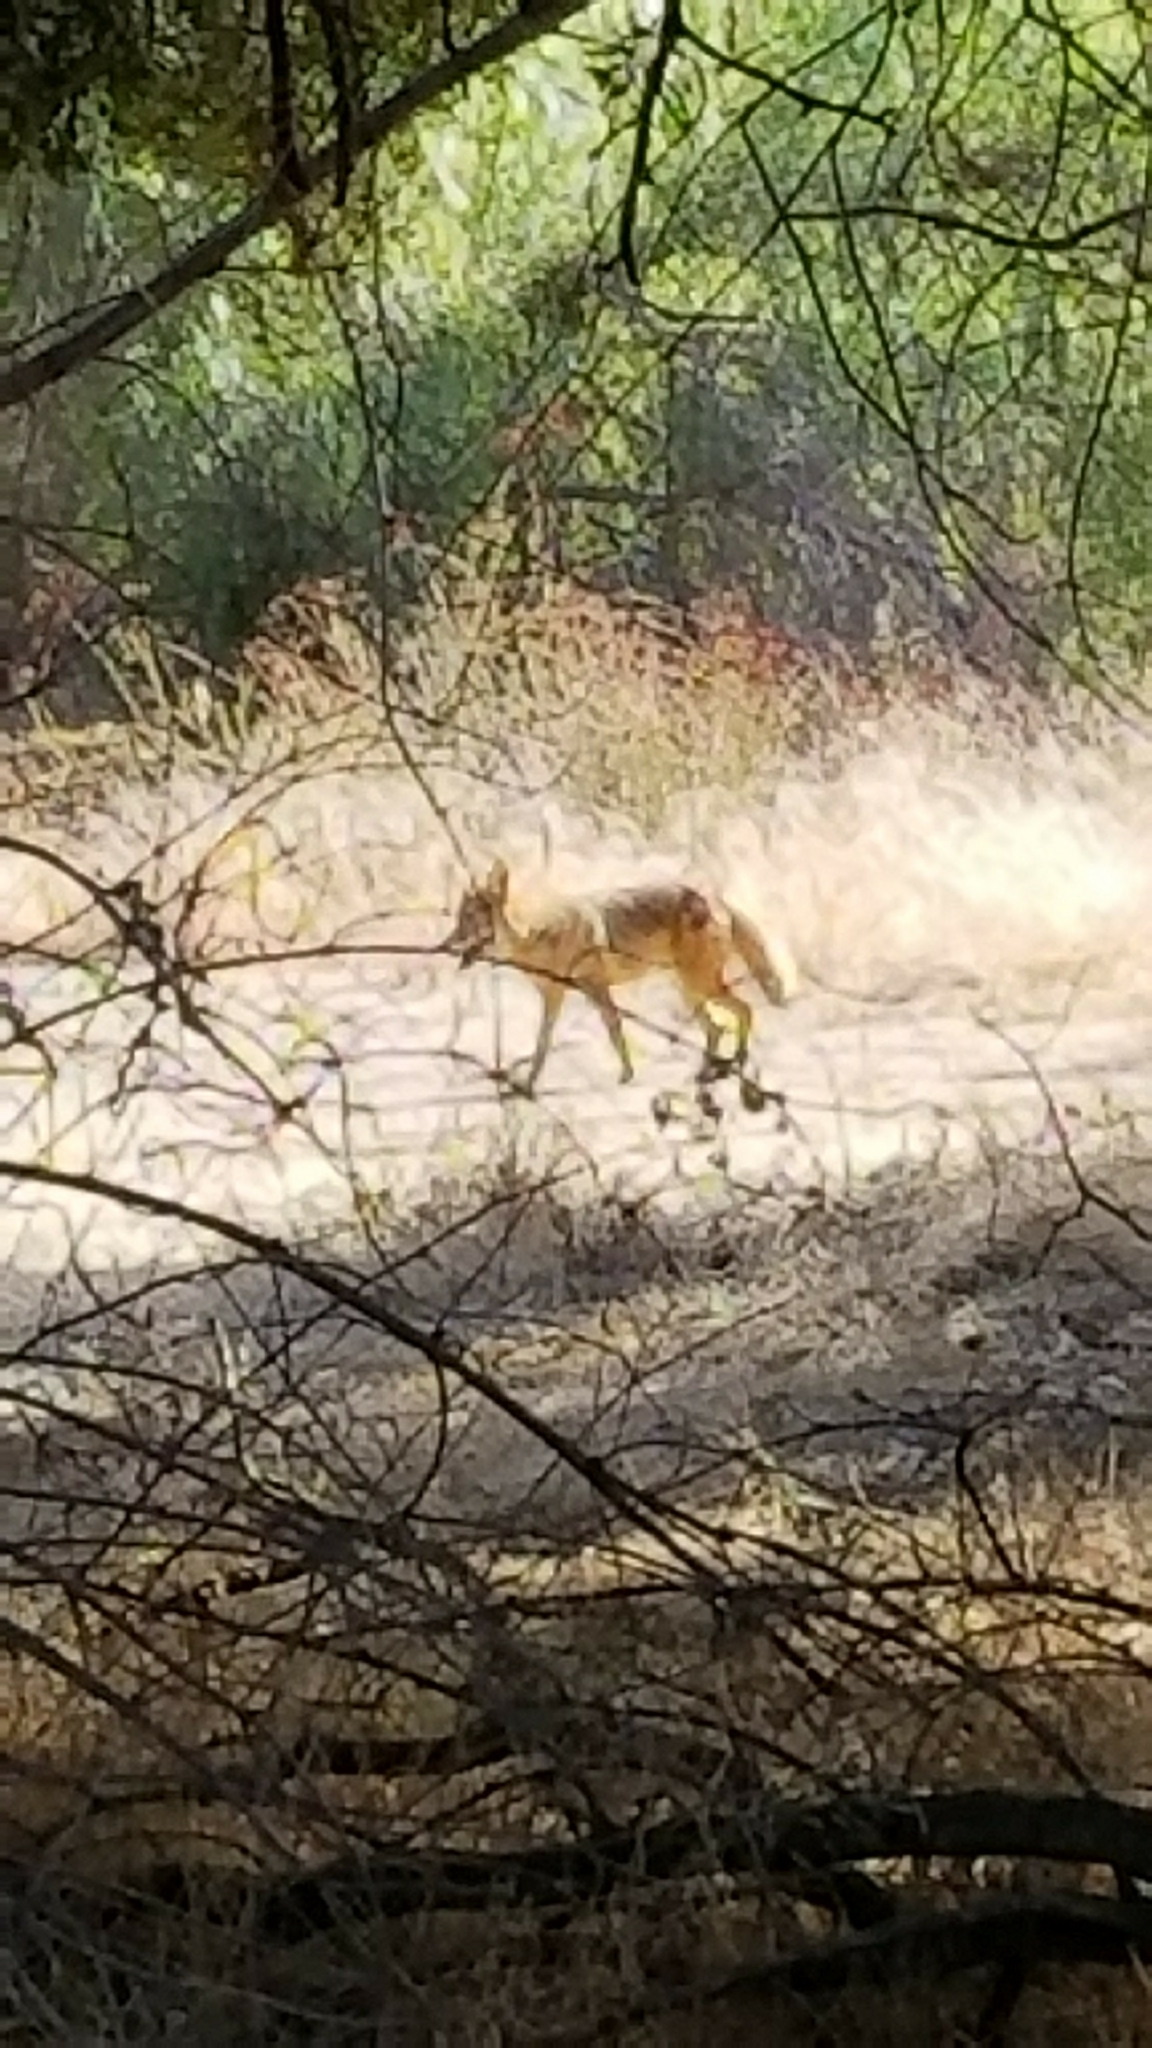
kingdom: Animalia
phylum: Chordata
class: Mammalia
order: Carnivora
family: Canidae
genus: Canis
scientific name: Canis latrans
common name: Coyote
